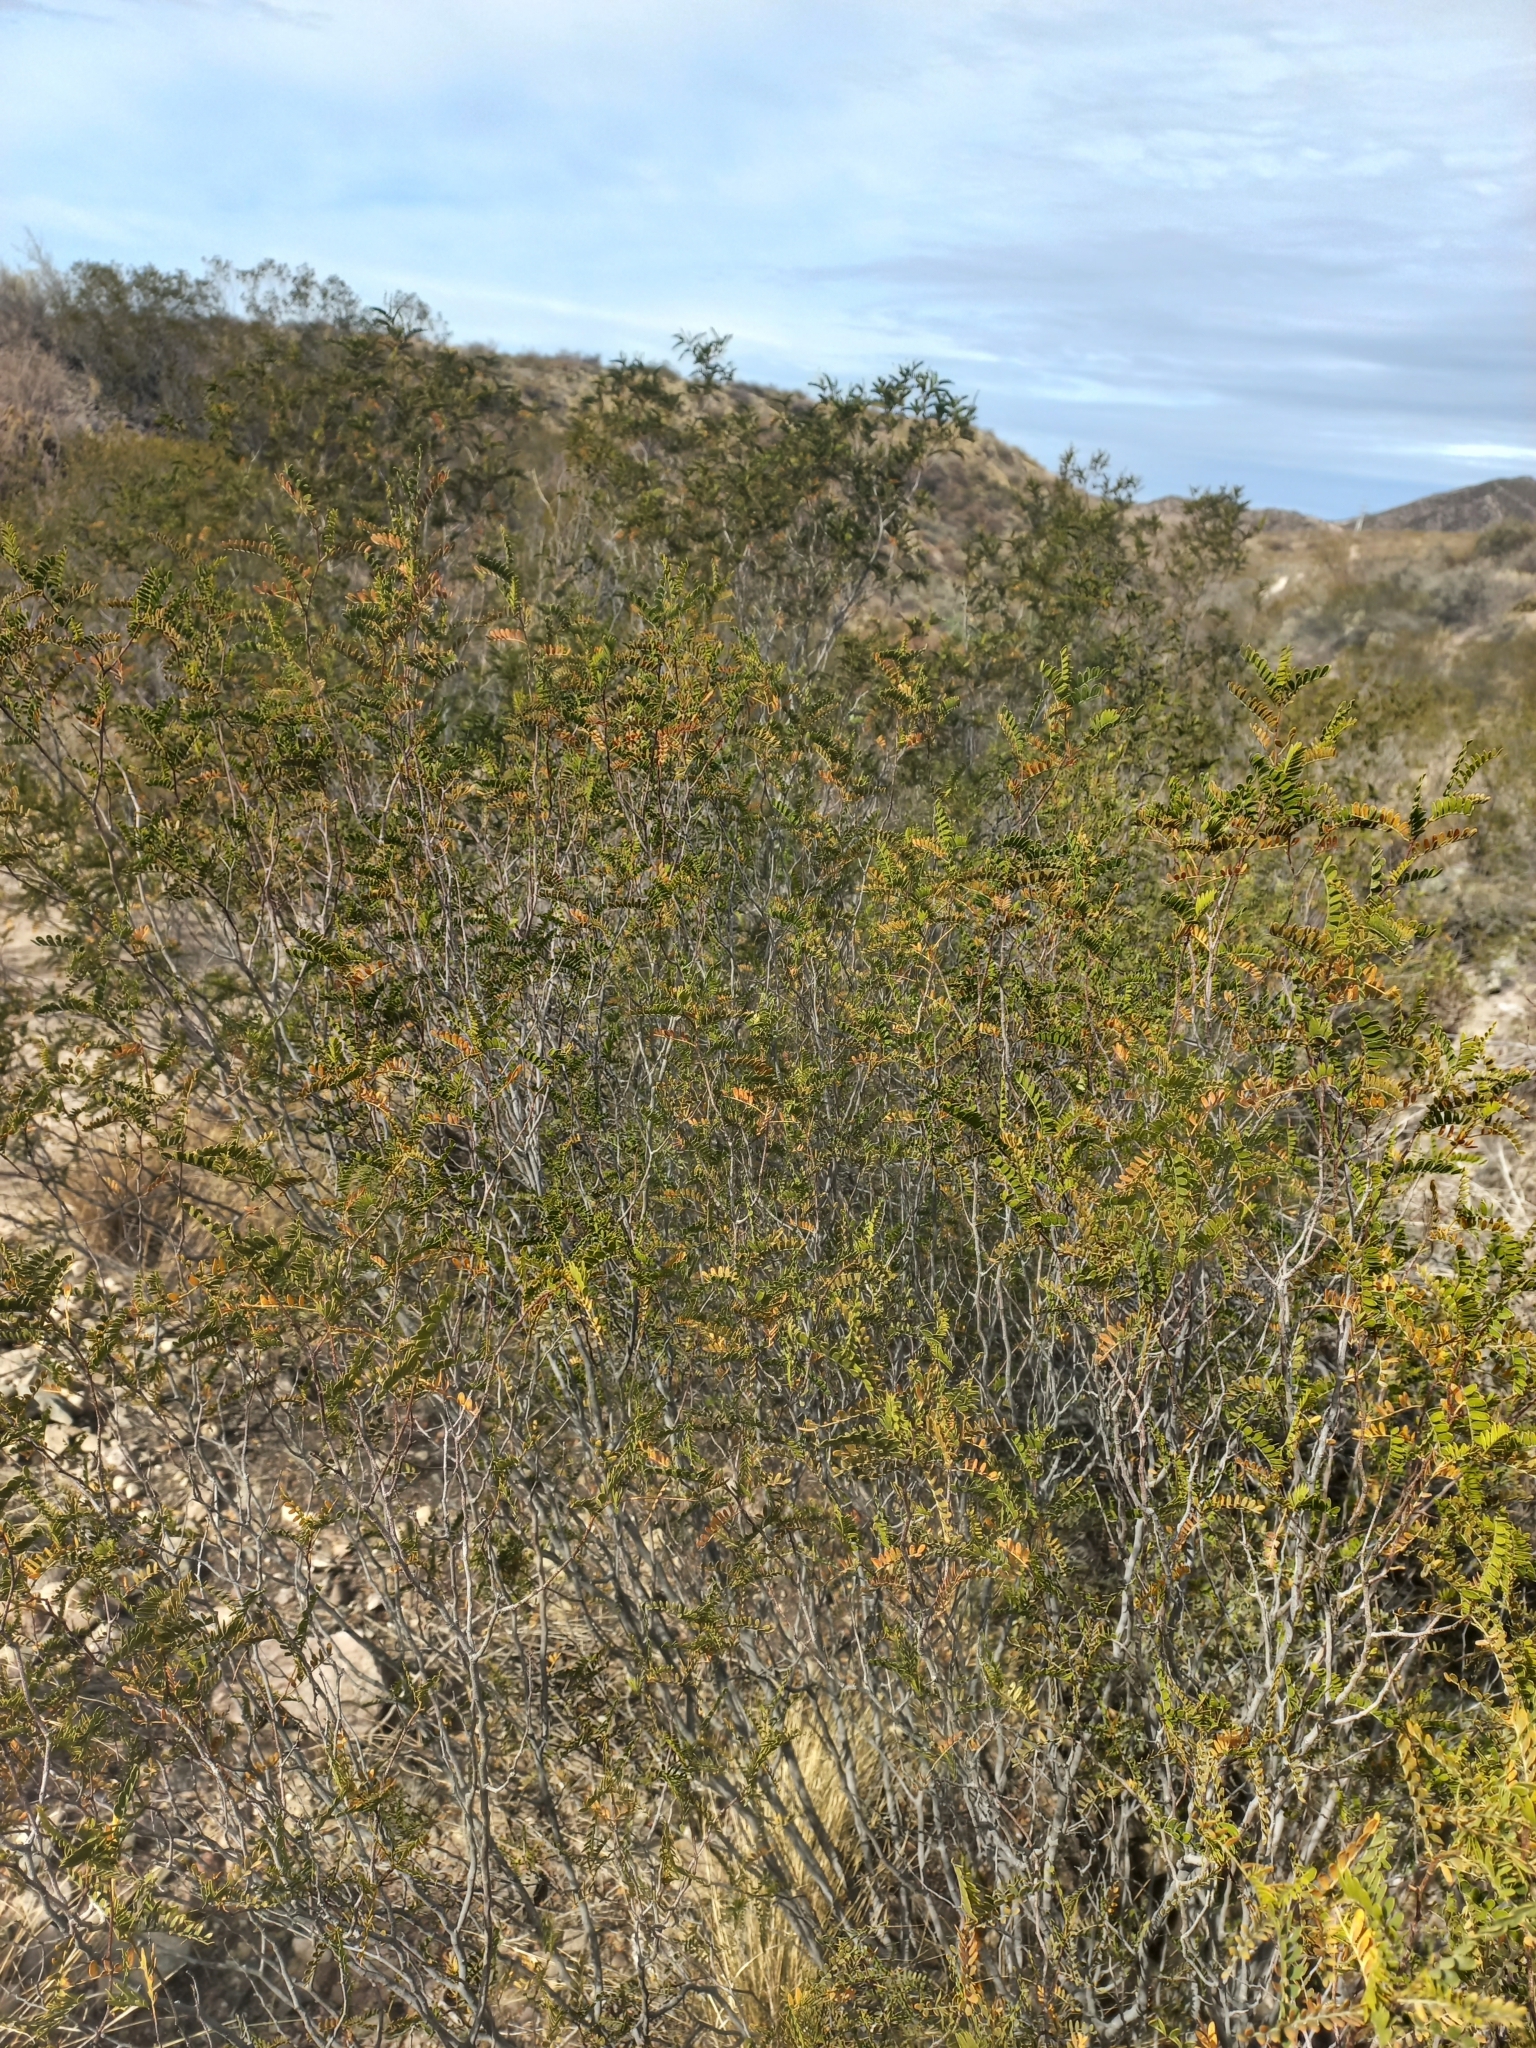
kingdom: Plantae
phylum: Tracheophyta
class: Magnoliopsida
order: Fabales
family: Fabaceae
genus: Zuccagnia
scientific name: Zuccagnia punctata
